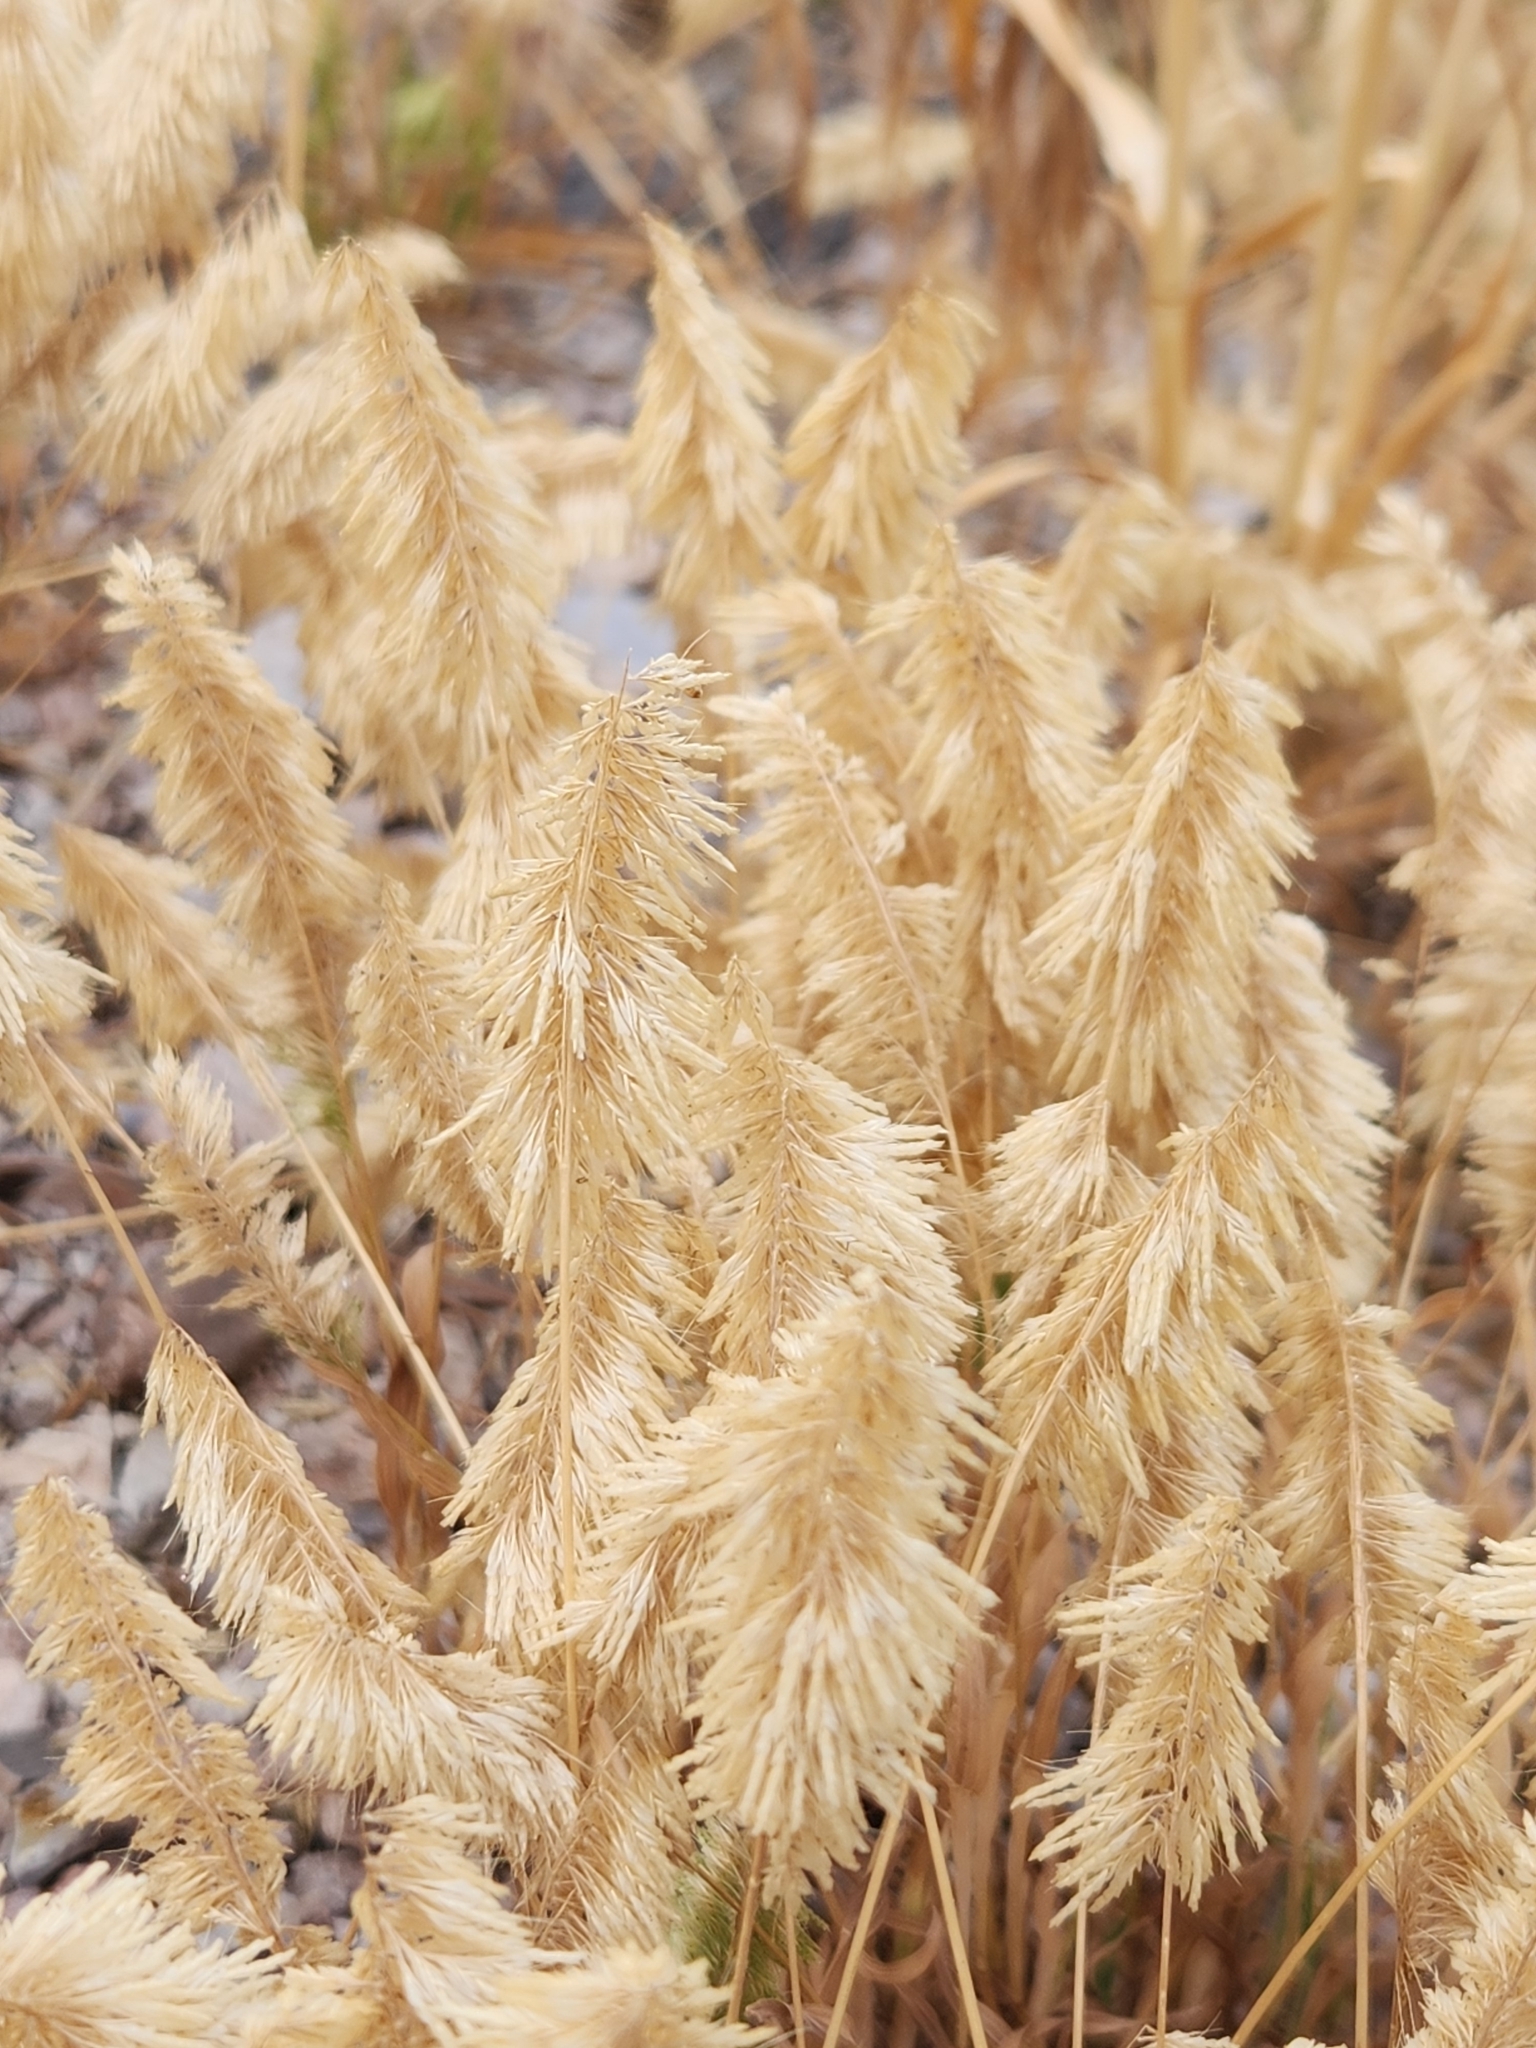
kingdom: Plantae
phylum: Tracheophyta
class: Liliopsida
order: Poales
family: Poaceae
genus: Lamarckia
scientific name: Lamarckia aurea
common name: Golden dog's-tail
